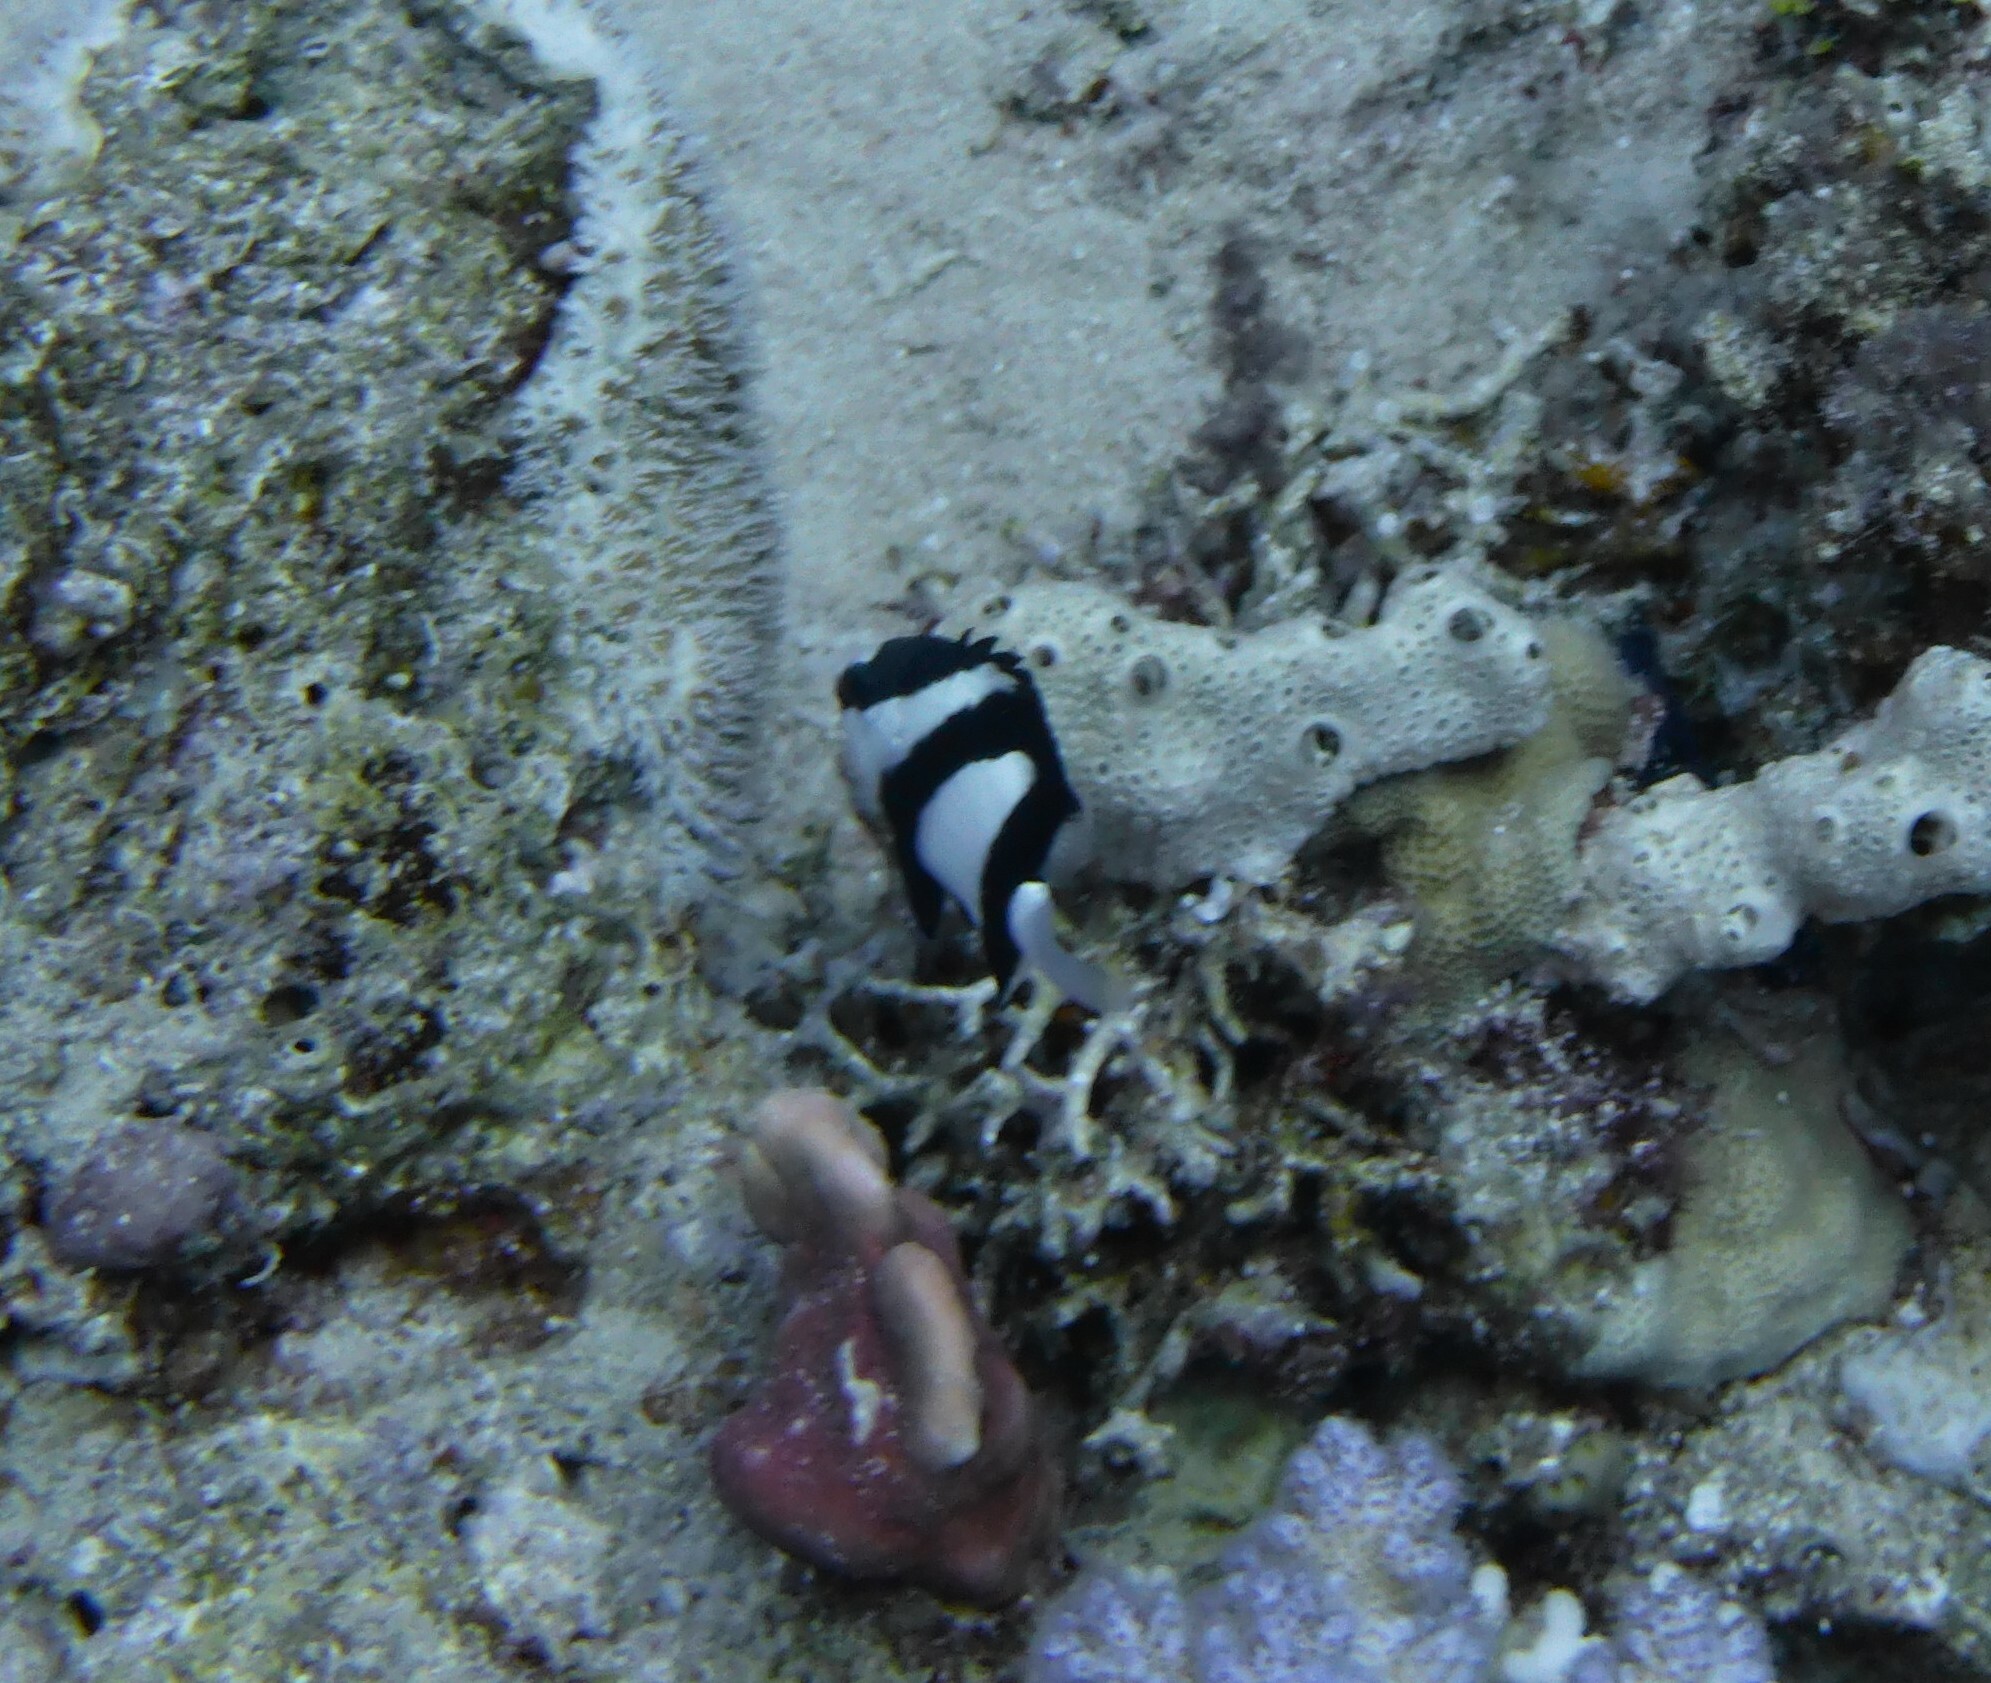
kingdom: Animalia
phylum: Chordata
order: Perciformes
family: Pomacentridae
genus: Dascyllus
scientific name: Dascyllus abudafur
